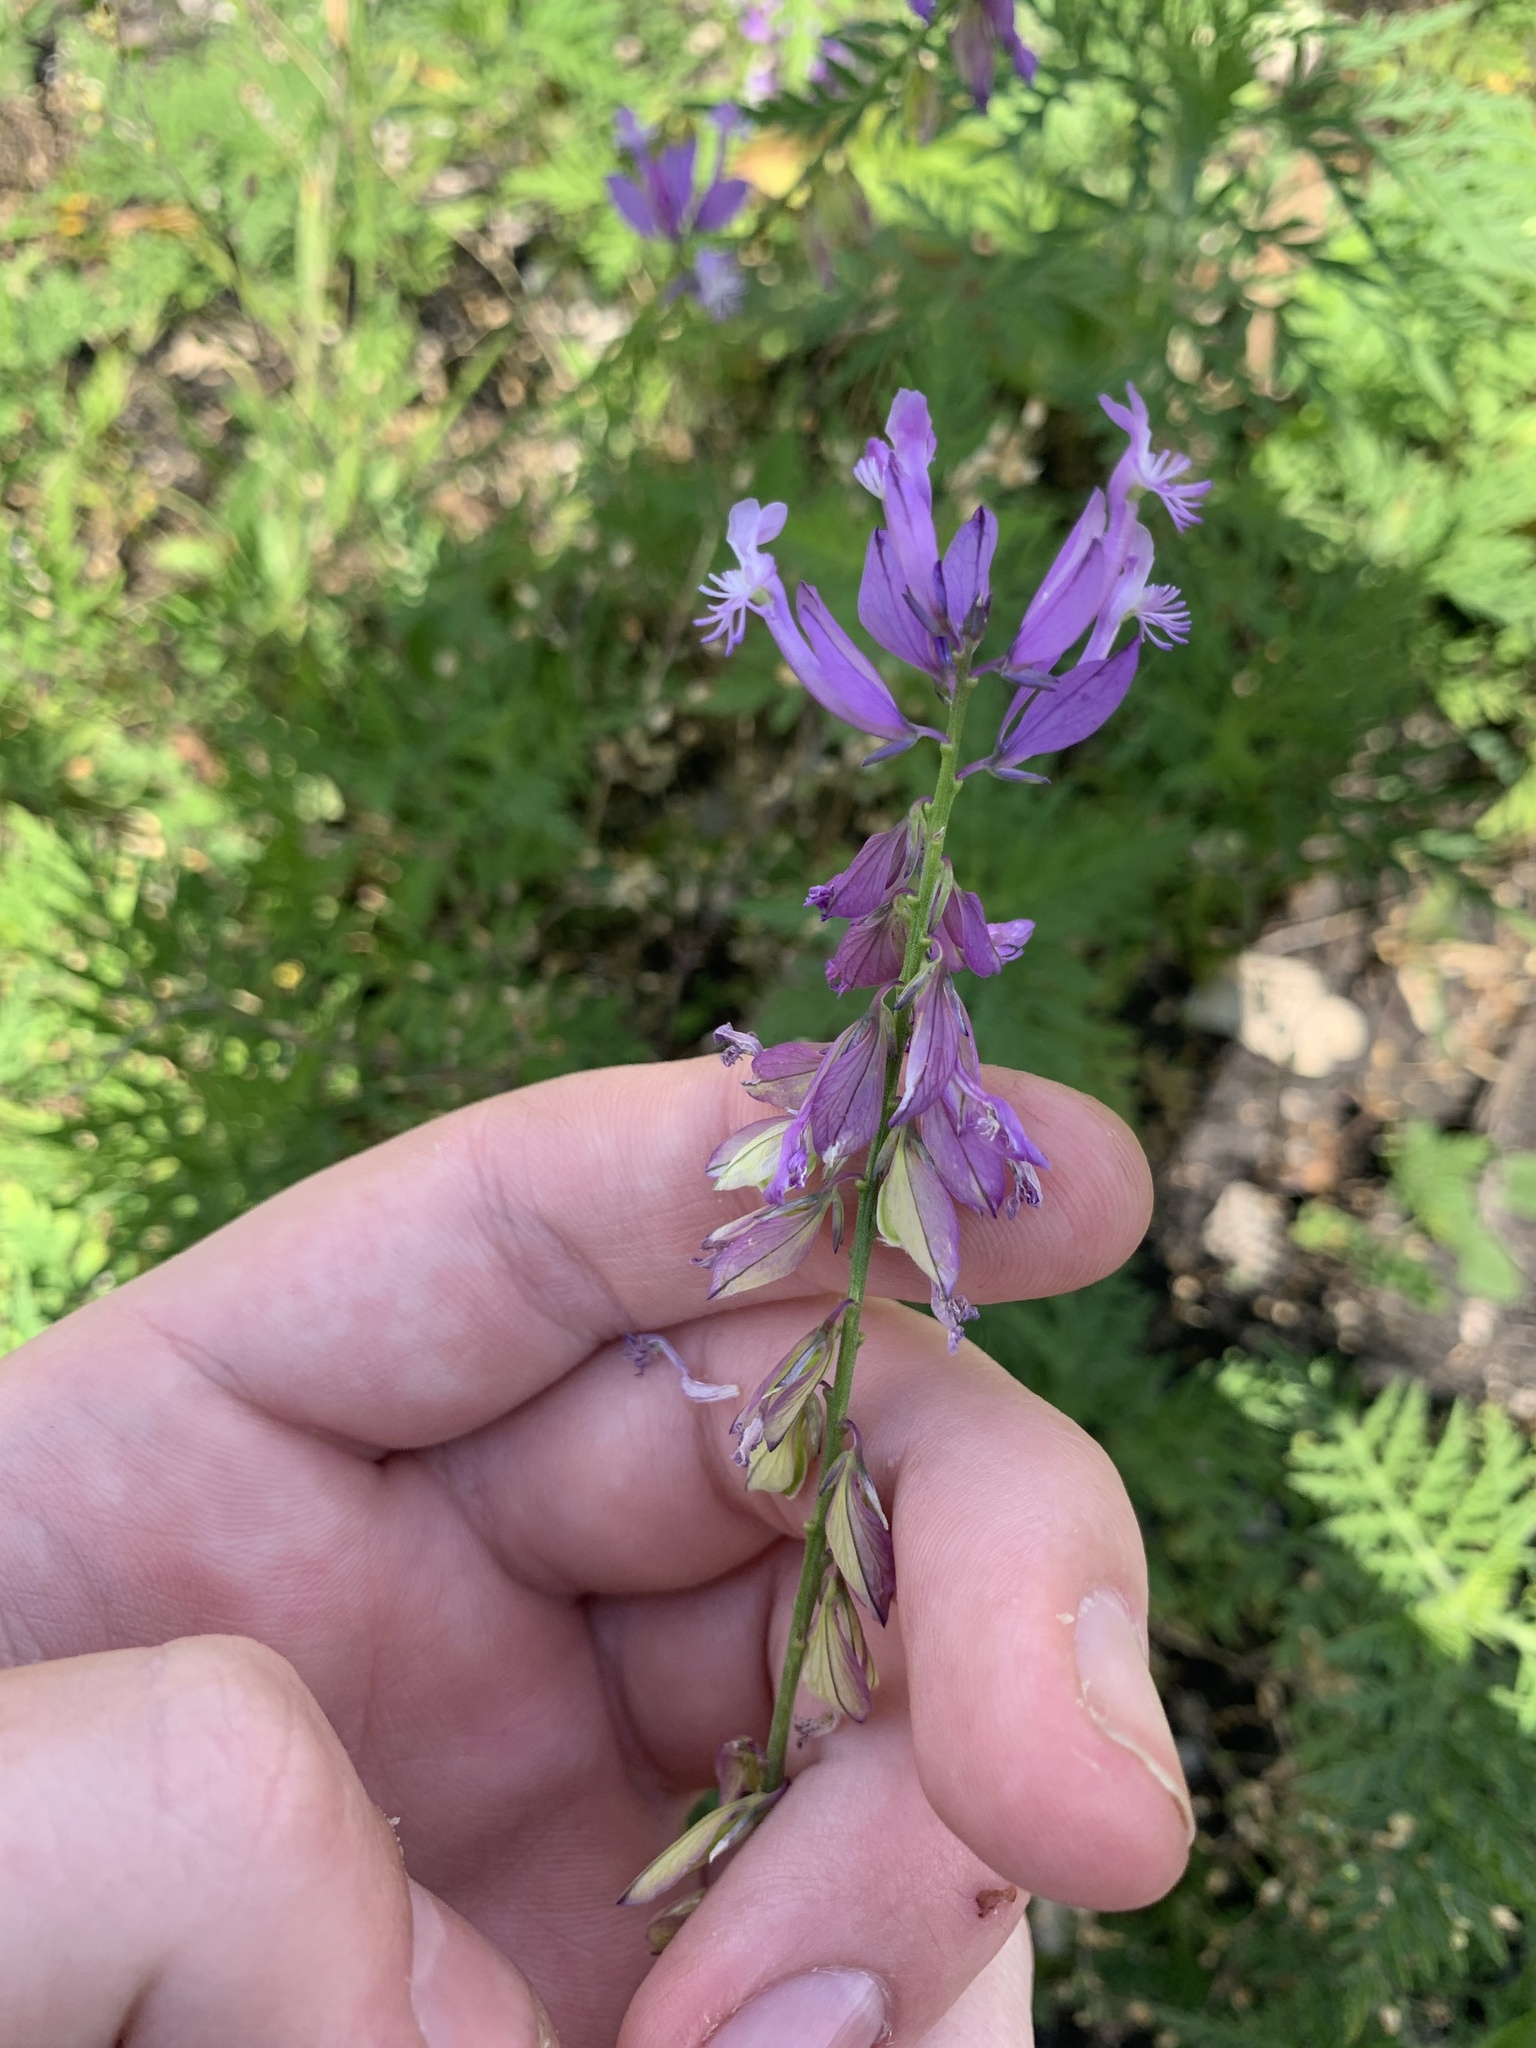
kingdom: Plantae
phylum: Tracheophyta
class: Magnoliopsida
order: Fabales
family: Polygalaceae
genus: Polygala
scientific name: Polygala major
